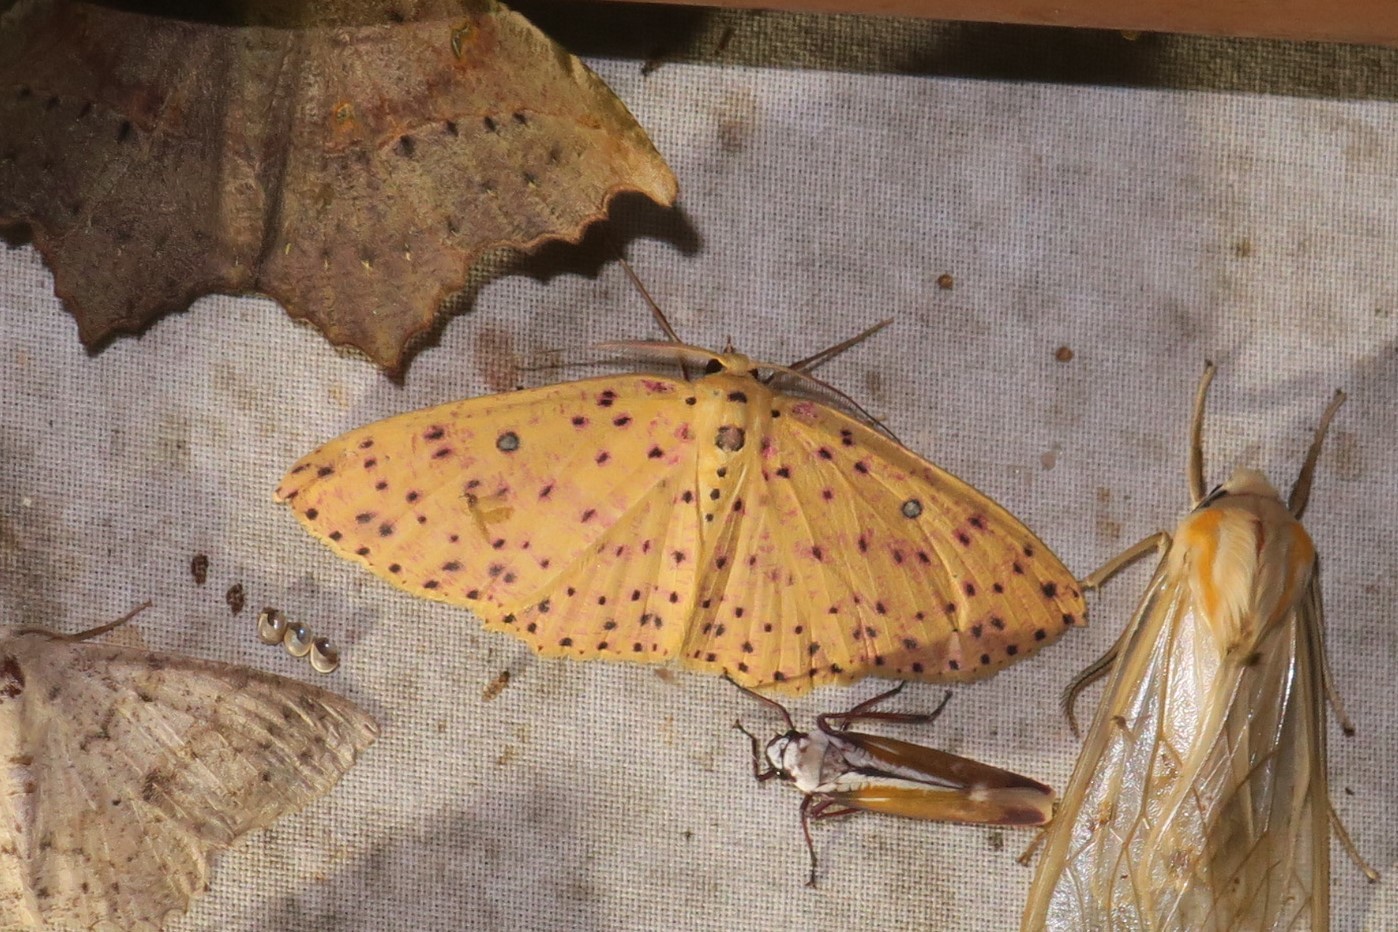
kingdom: Animalia
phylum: Arthropoda
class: Insecta
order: Lepidoptera
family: Geometridae
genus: Cyclophora
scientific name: Cyclophora
